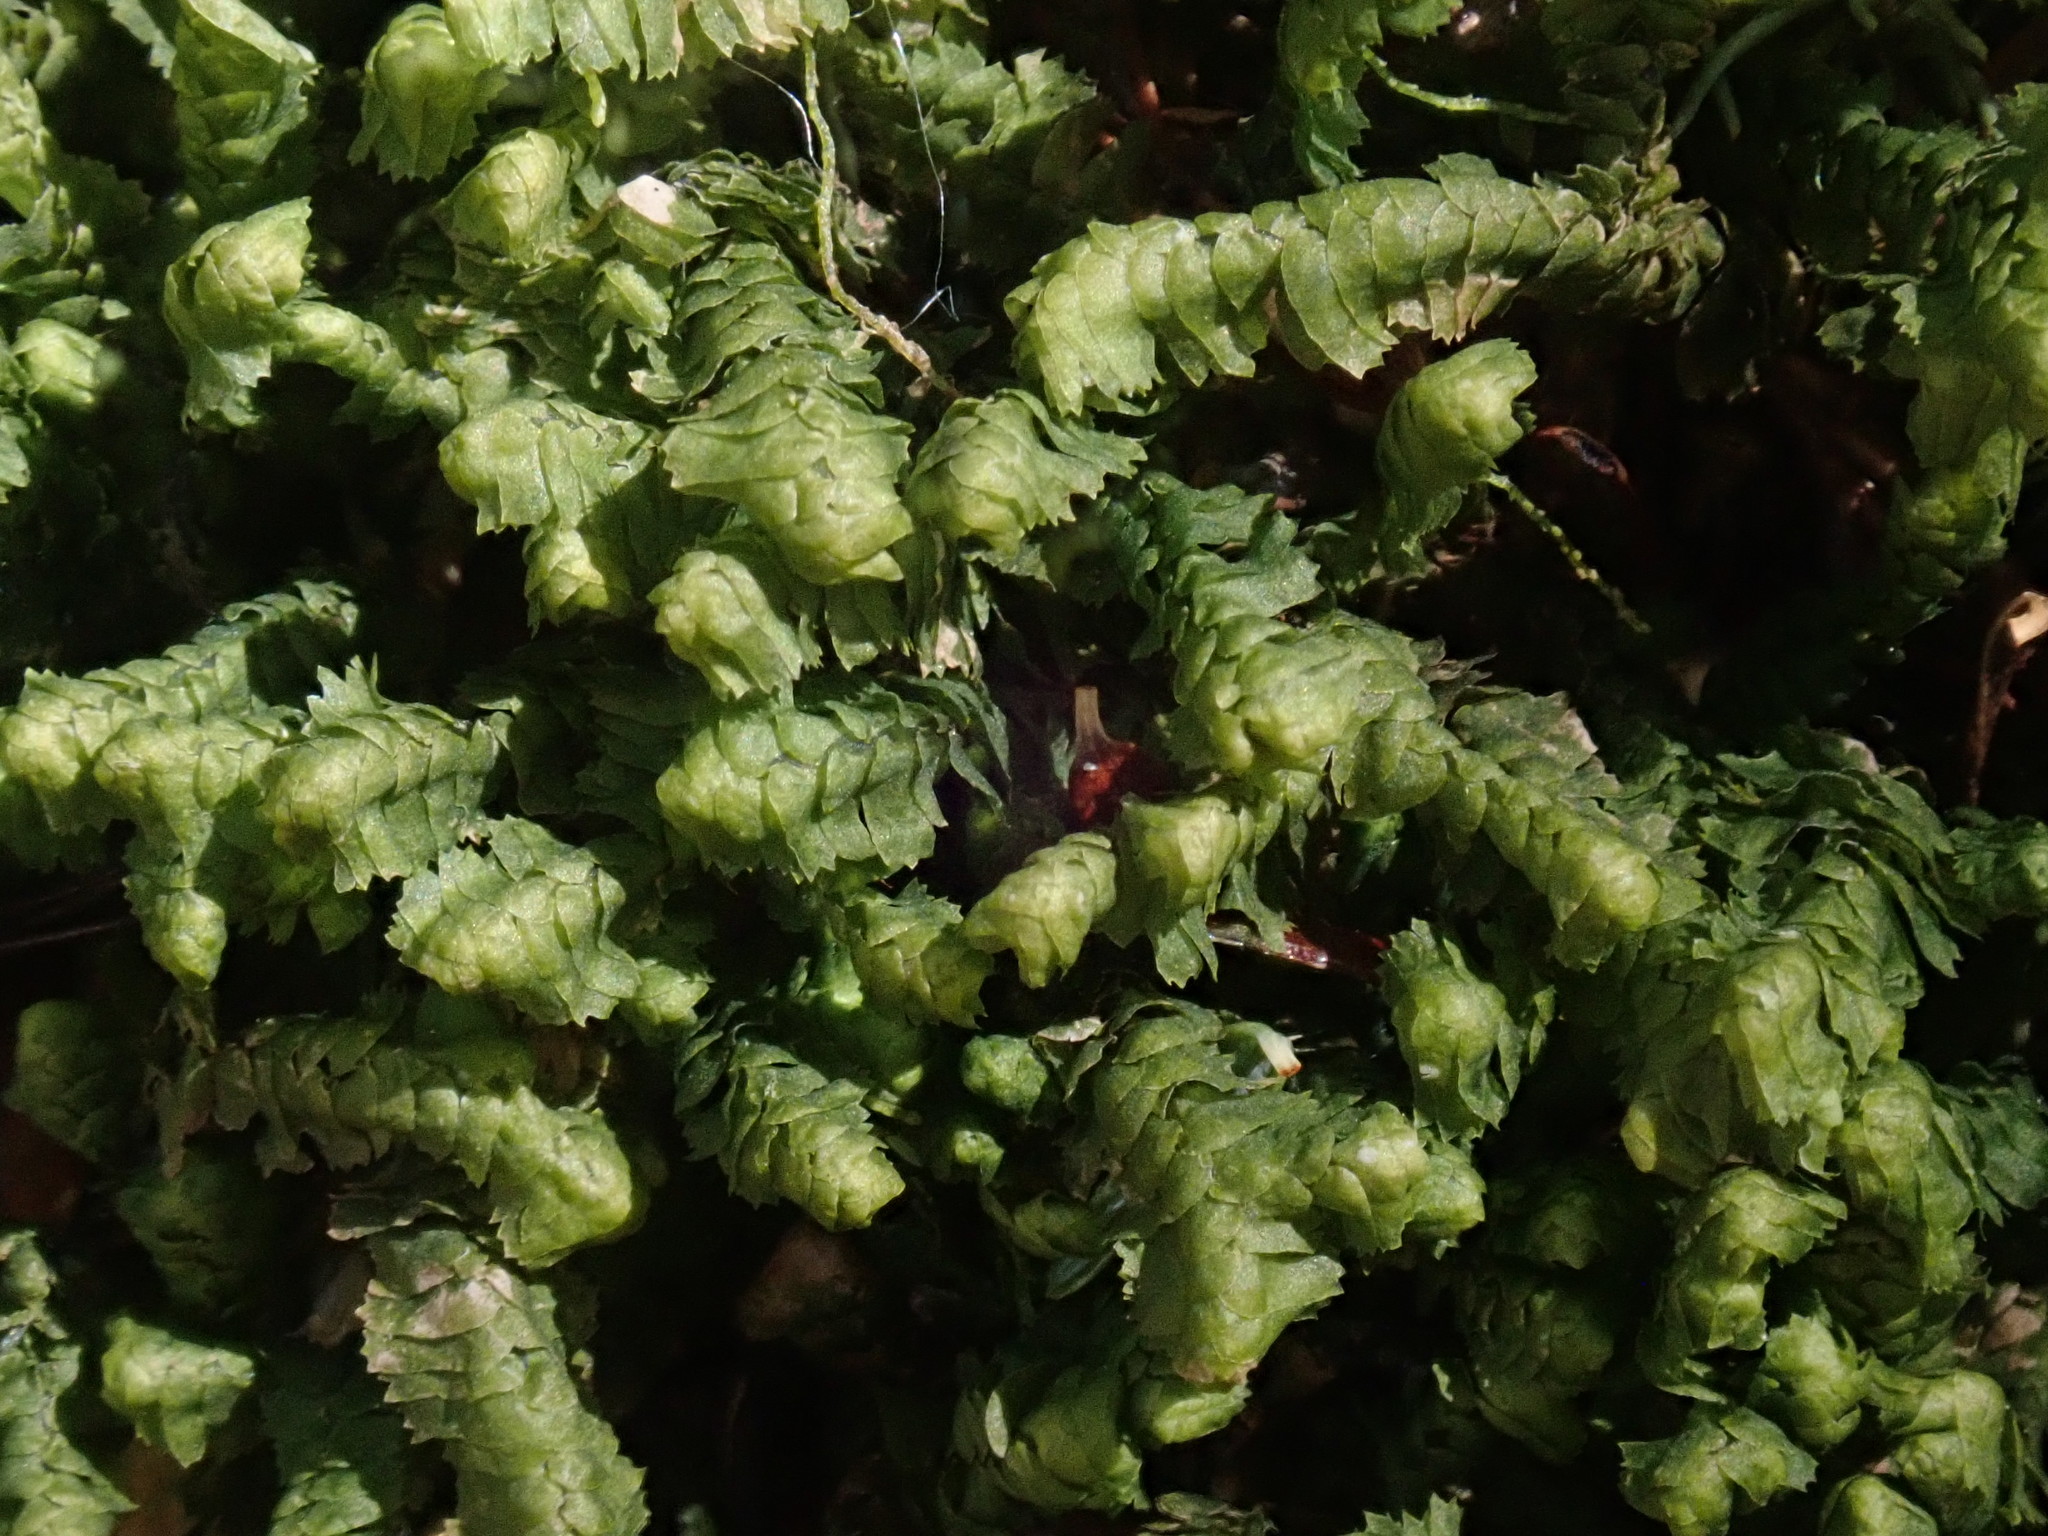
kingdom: Plantae
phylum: Marchantiophyta
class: Jungermanniopsida
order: Jungermanniales
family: Lepidoziaceae
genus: Bazzania
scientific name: Bazzania trilobata
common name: Three-lobed whipwort
